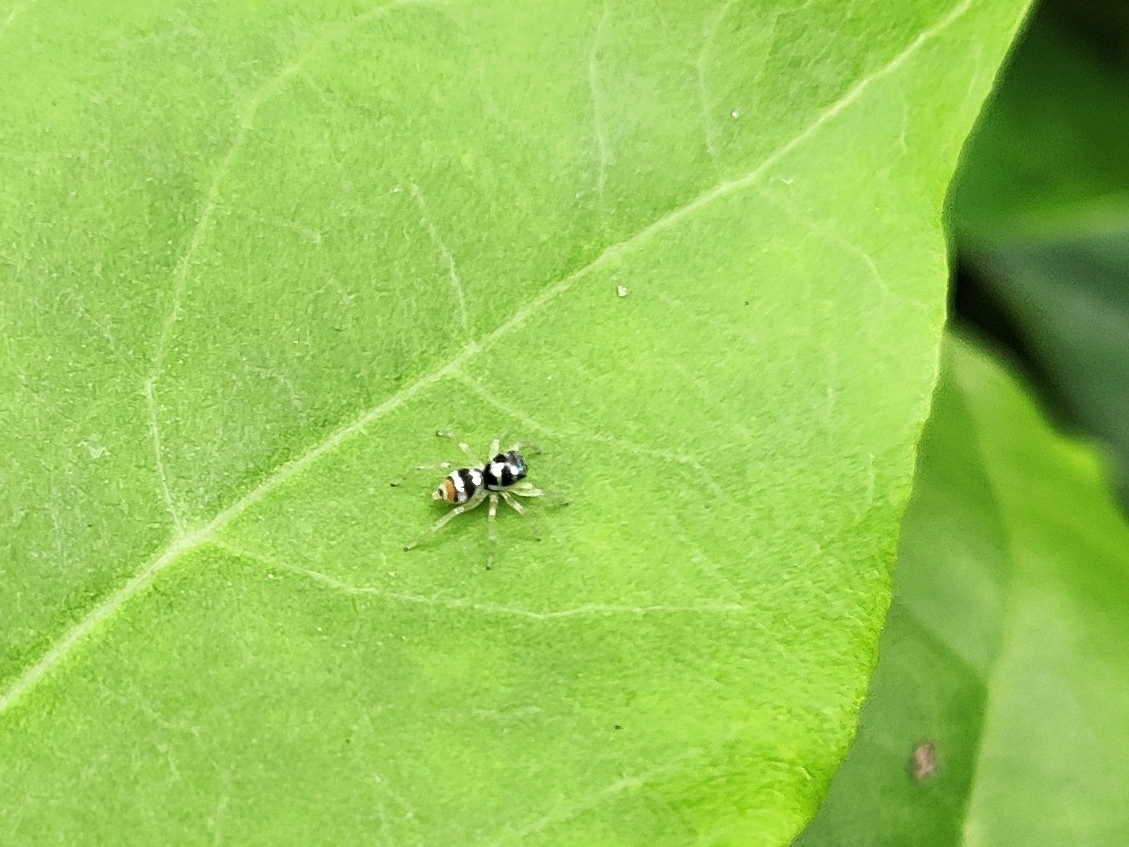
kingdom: Animalia
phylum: Arthropoda
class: Arachnida
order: Araneae
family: Salticidae
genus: Phintella
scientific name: Phintella vittata
